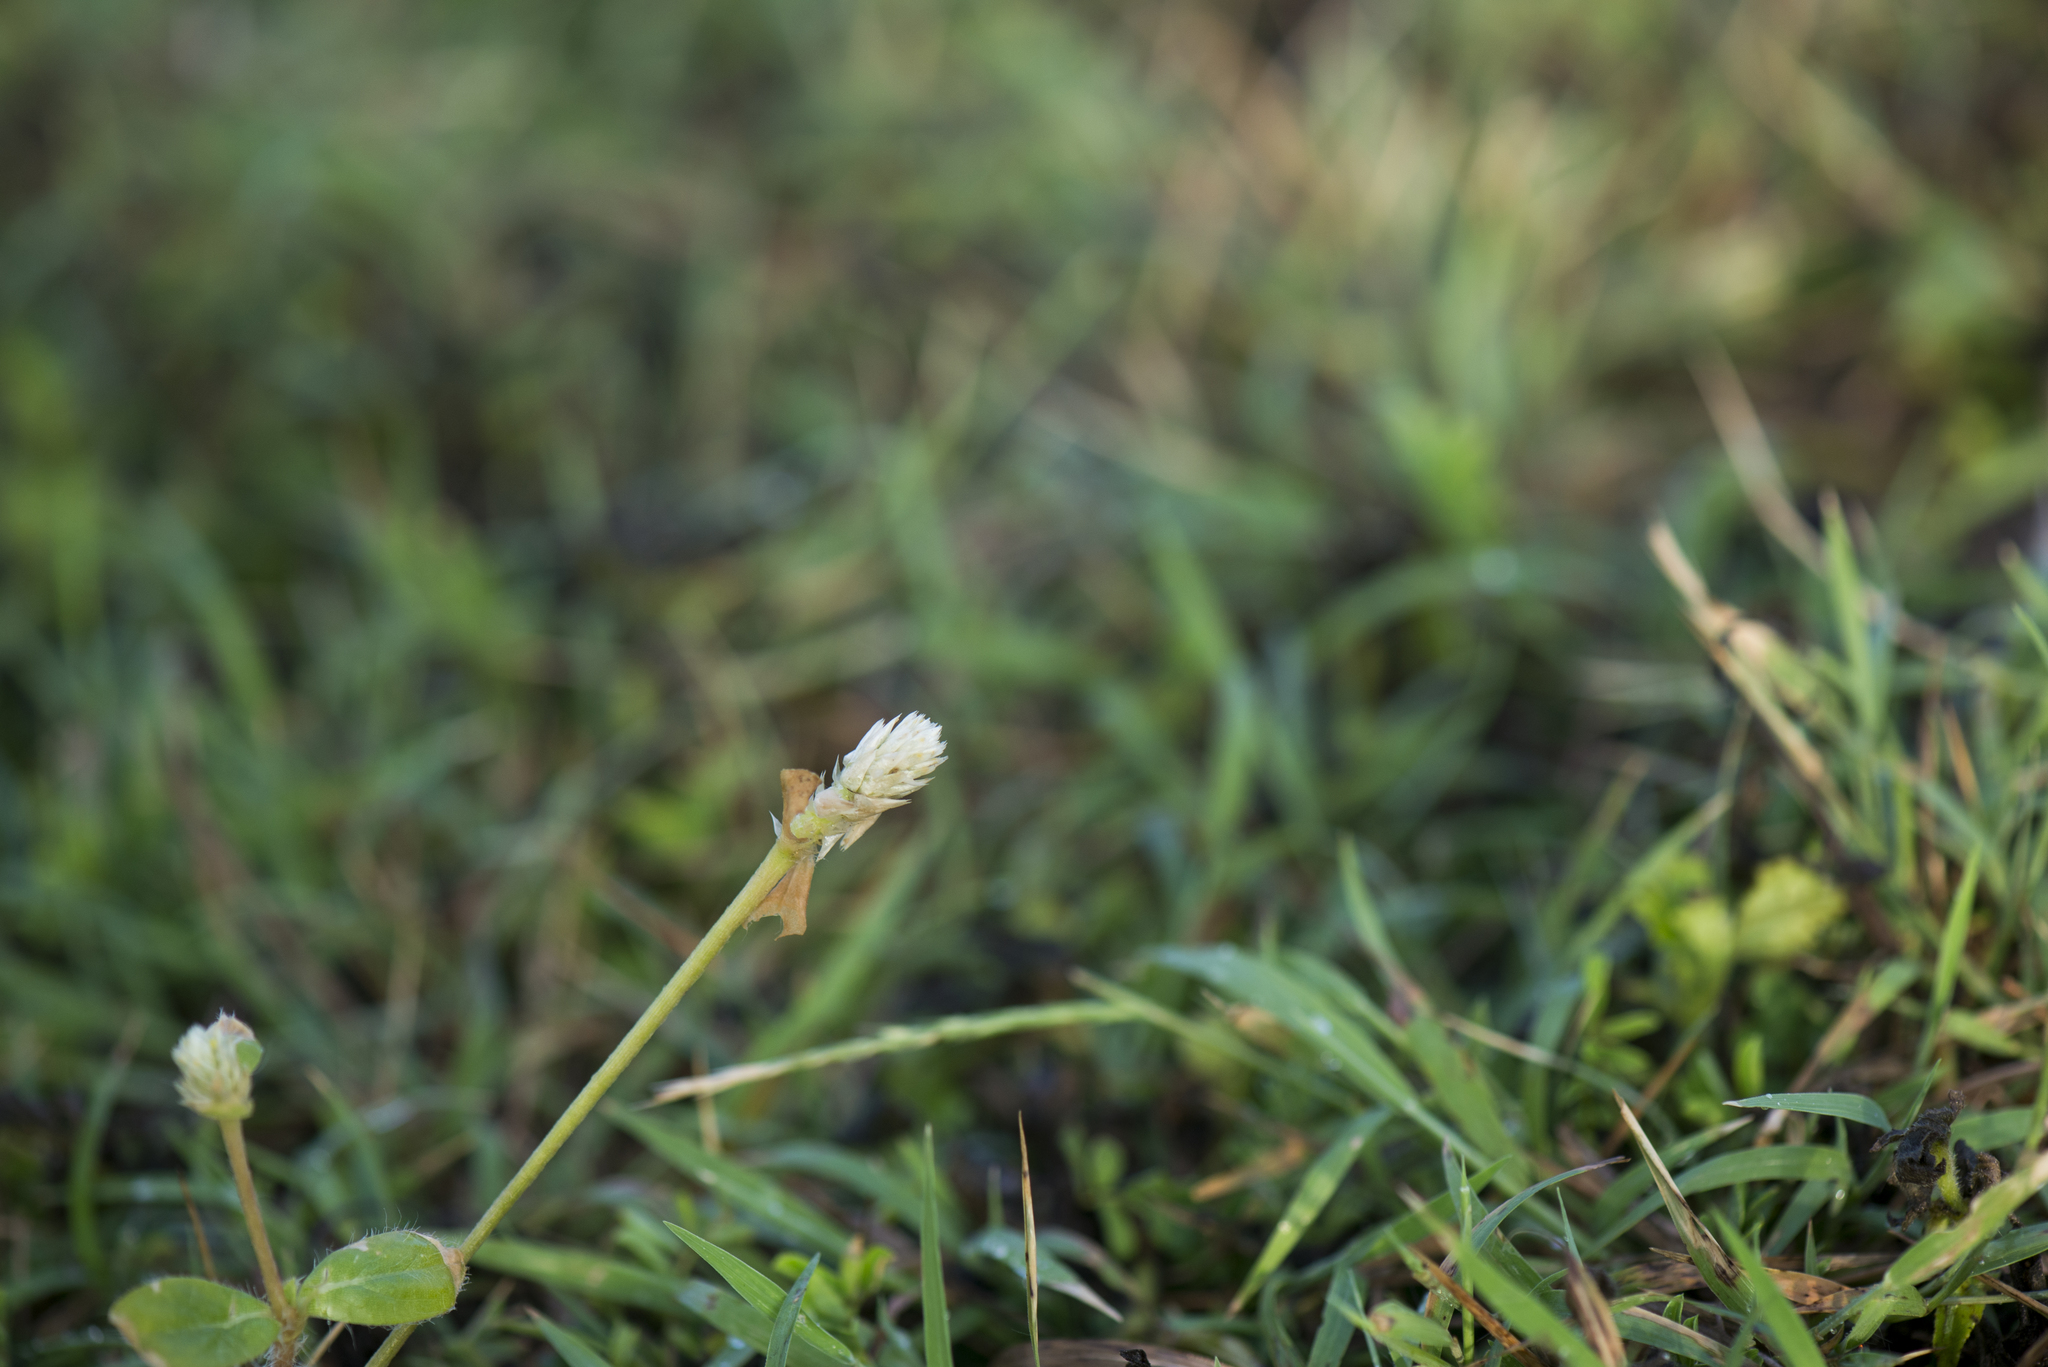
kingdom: Plantae
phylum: Tracheophyta
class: Magnoliopsida
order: Caryophyllales
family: Amaranthaceae
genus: Gomphrena
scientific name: Gomphrena celosioides
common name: Gomphrena-weed
